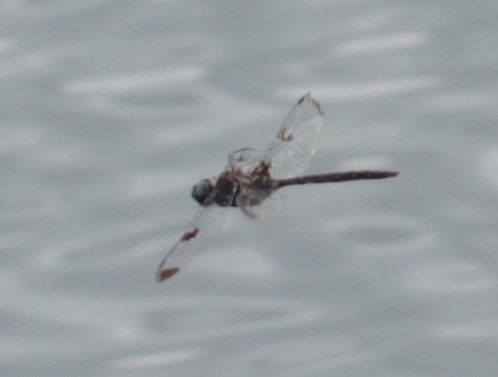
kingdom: Animalia
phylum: Arthropoda
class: Insecta
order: Odonata
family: Corduliidae
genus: Epitheca
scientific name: Epitheca princeps
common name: Prince baskettail
